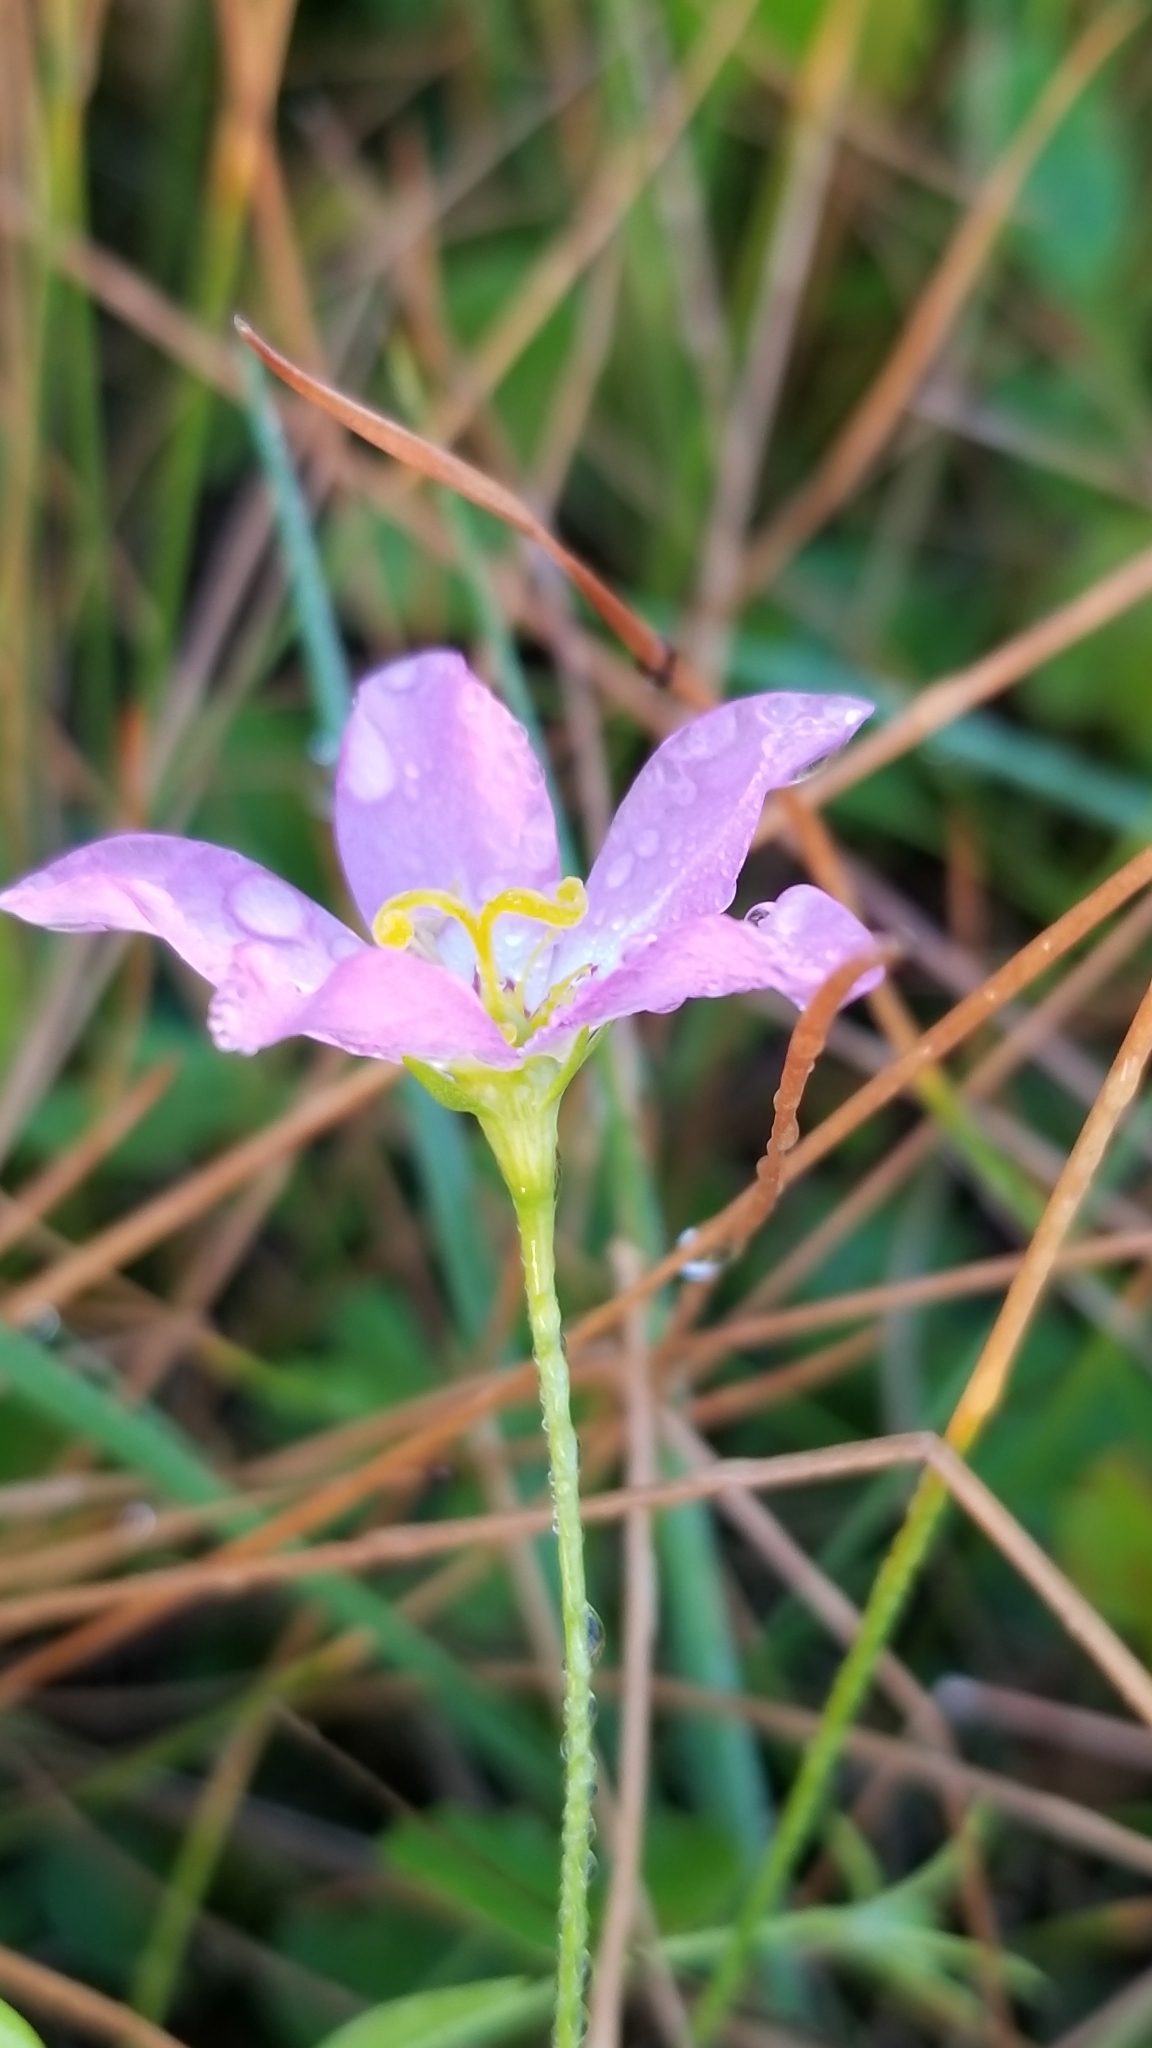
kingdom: Plantae
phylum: Tracheophyta
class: Magnoliopsida
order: Gentianales
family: Gentianaceae
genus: Sabatia
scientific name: Sabatia stellaris
